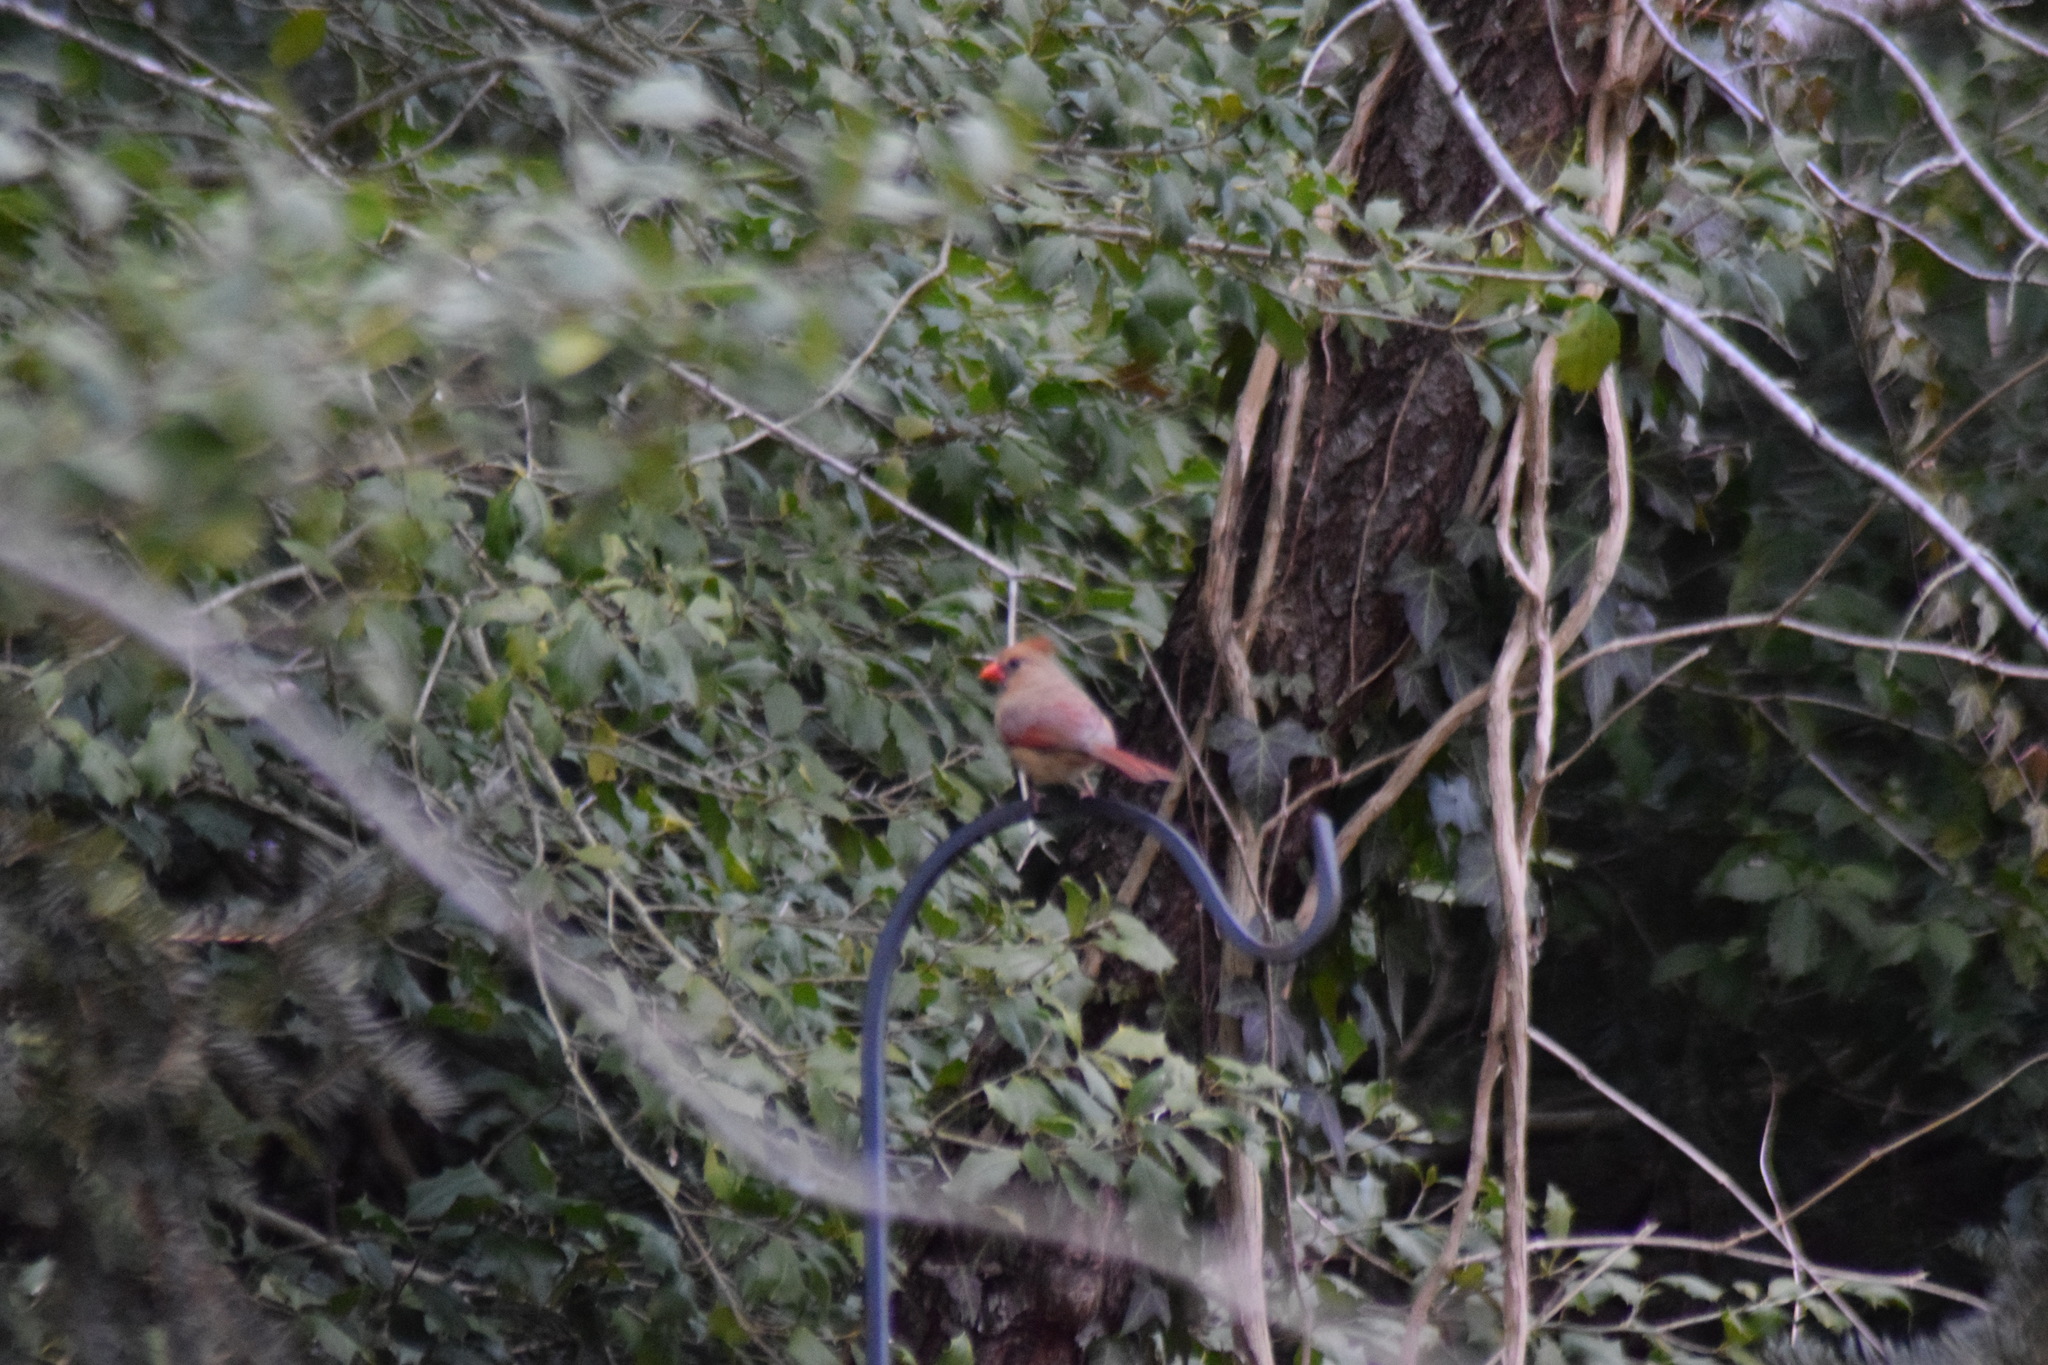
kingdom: Animalia
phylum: Chordata
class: Aves
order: Passeriformes
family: Cardinalidae
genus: Cardinalis
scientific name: Cardinalis cardinalis
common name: Northern cardinal
